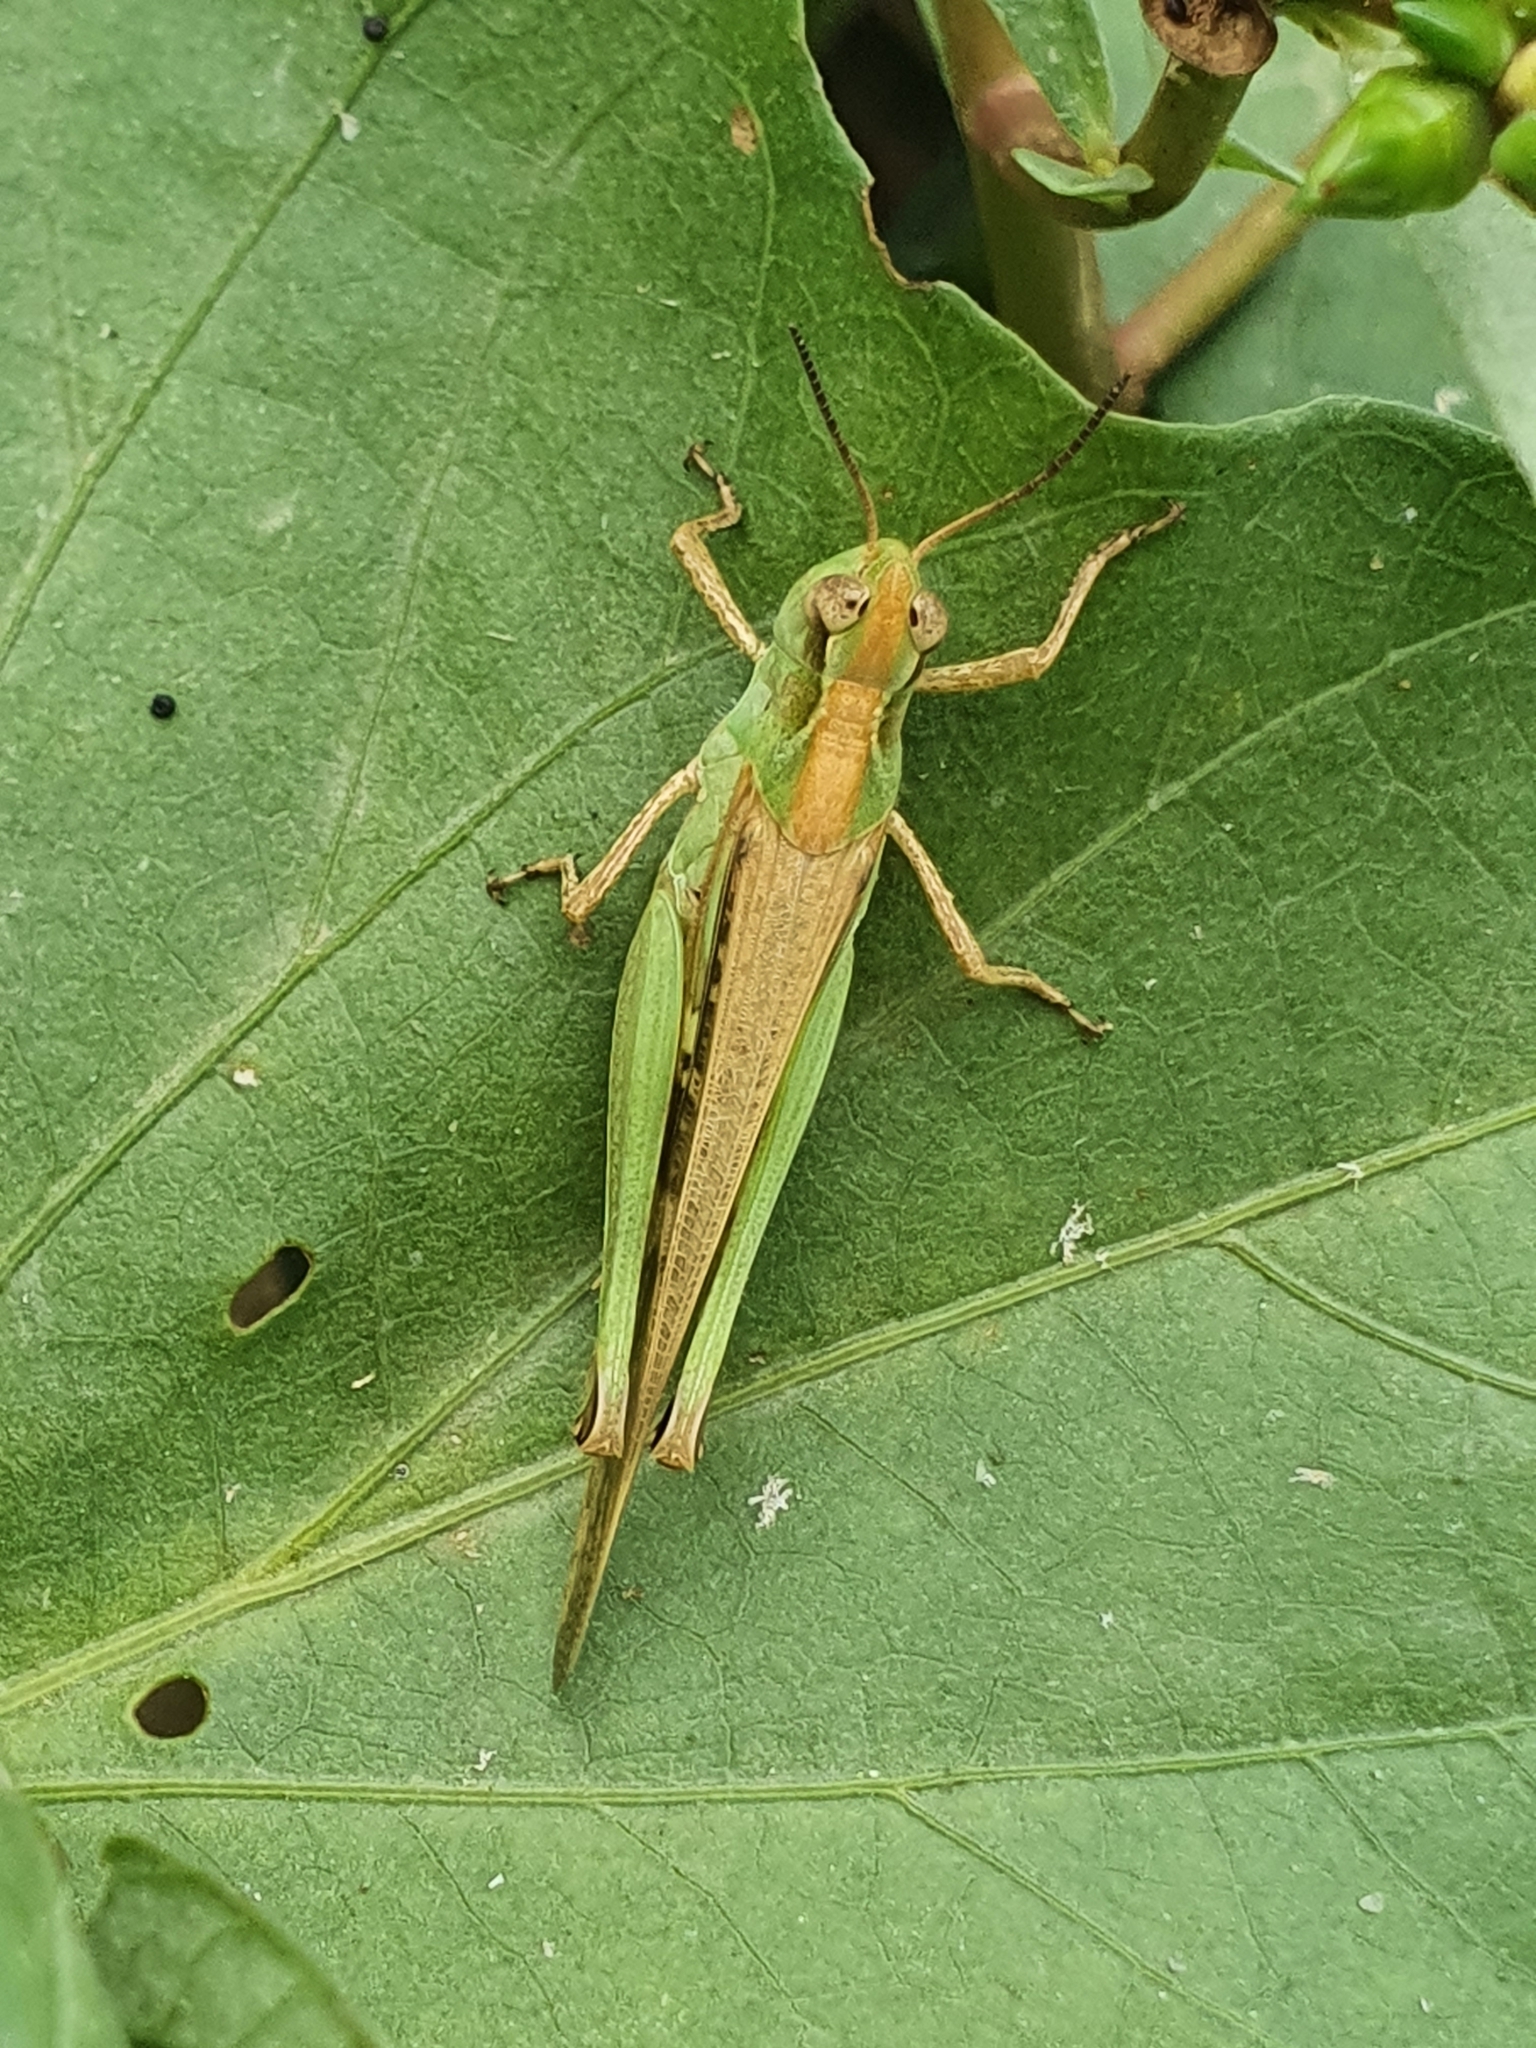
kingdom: Animalia
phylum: Arthropoda
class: Insecta
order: Orthoptera
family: Acrididae
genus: Aiolopus
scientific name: Aiolopus thalassinus
